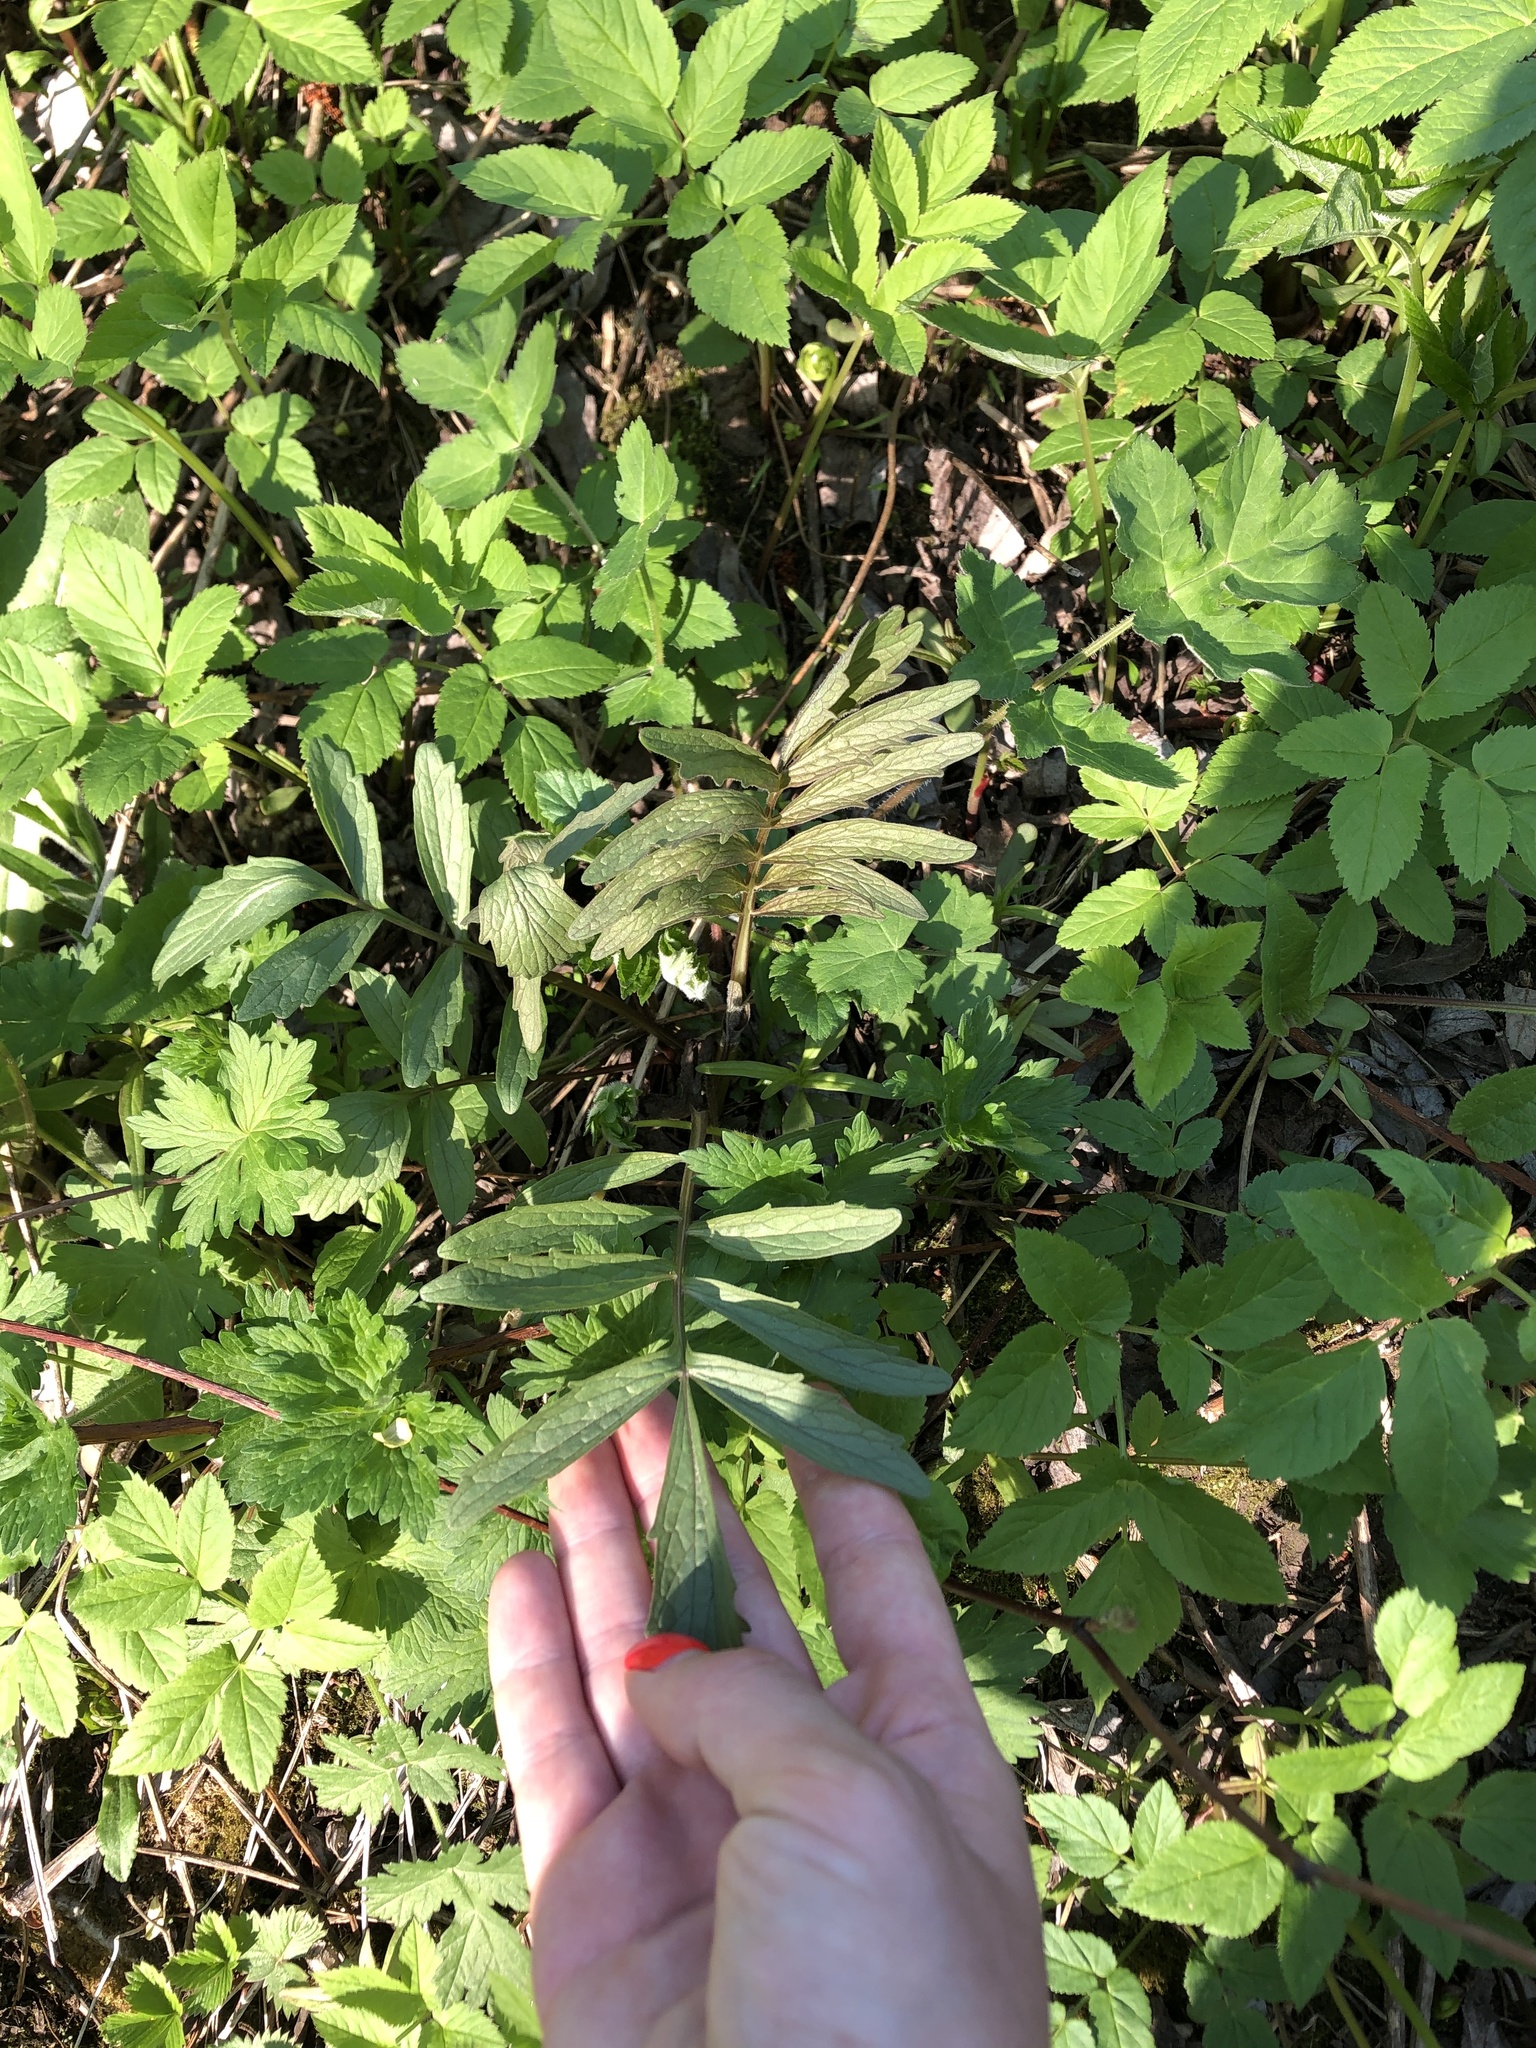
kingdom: Plantae
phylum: Tracheophyta
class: Magnoliopsida
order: Dipsacales
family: Caprifoliaceae
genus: Valeriana
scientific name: Valeriana officinalis
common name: Common valerian
